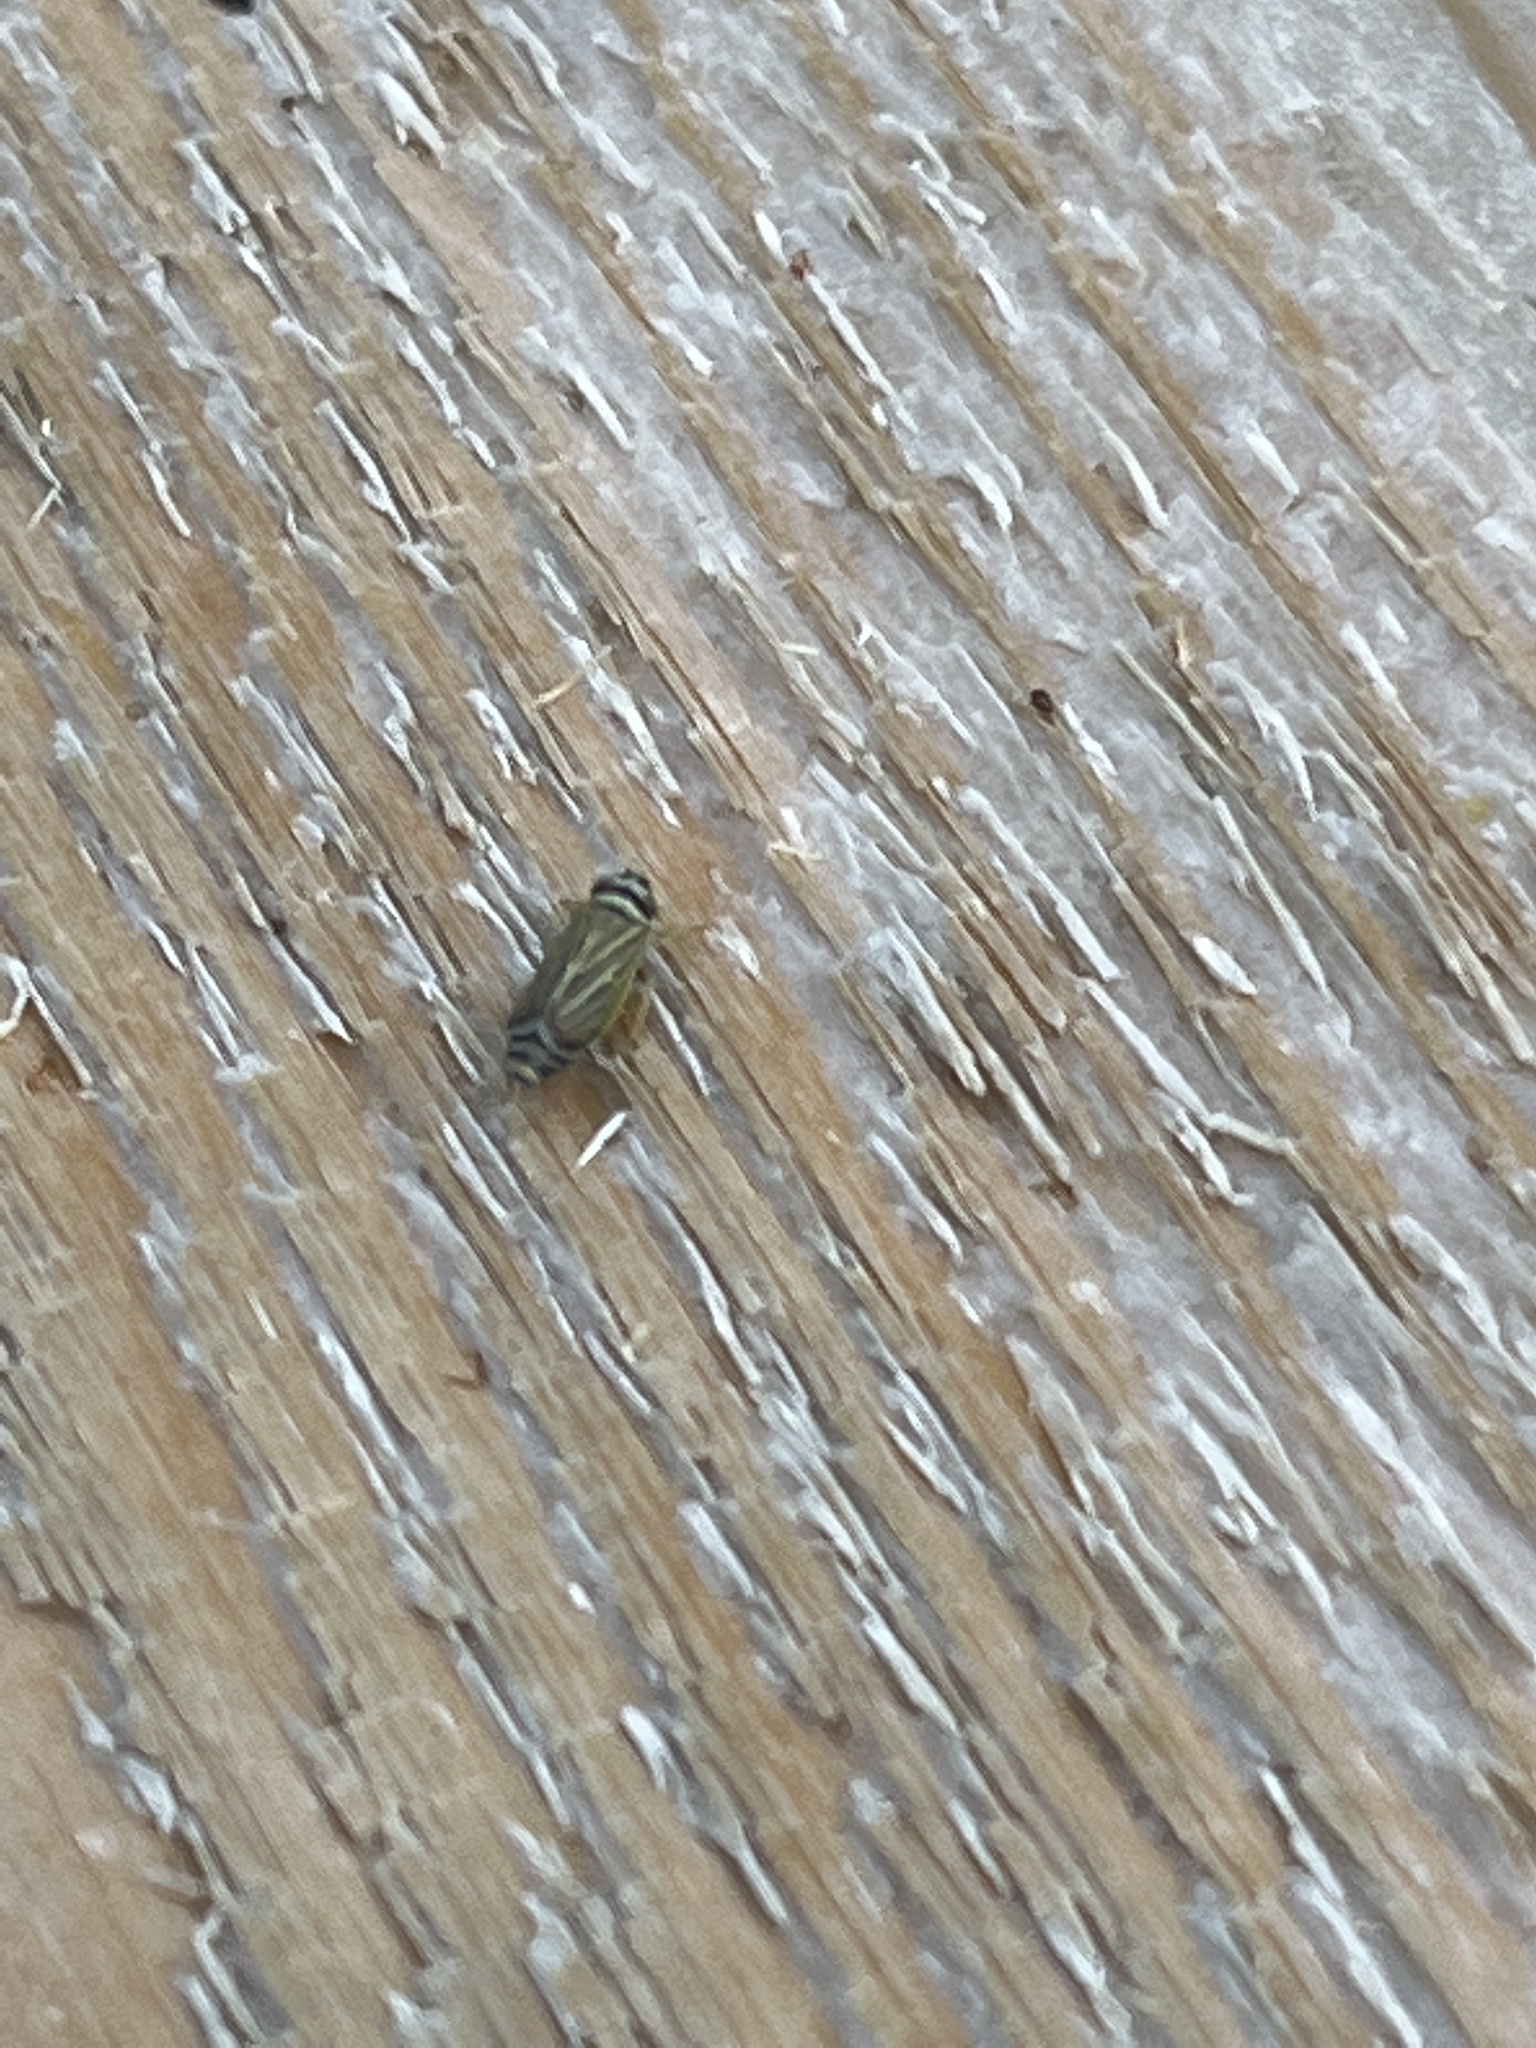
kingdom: Animalia
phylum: Arthropoda
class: Insecta
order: Hemiptera
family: Cicadellidae
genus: Amblysellus
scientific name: Amblysellus curtisii
